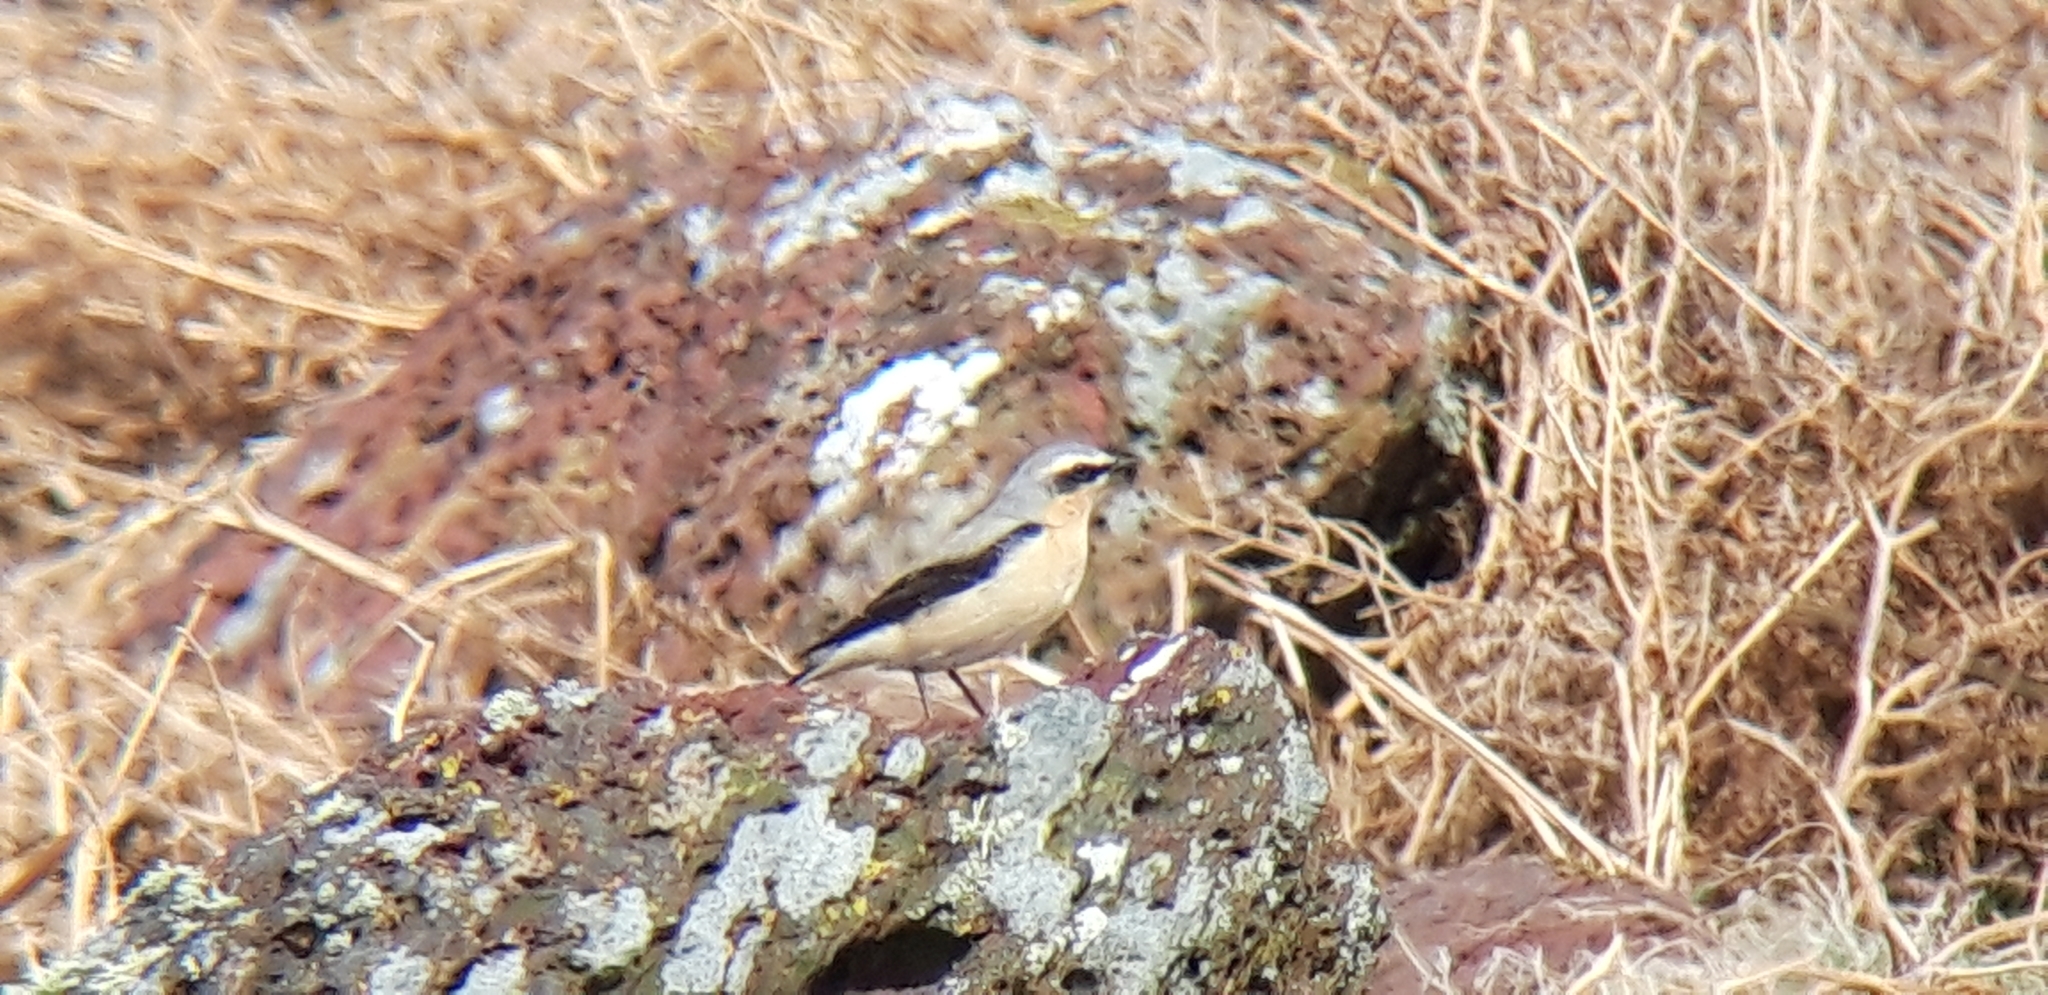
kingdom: Animalia
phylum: Chordata
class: Aves
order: Passeriformes
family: Muscicapidae
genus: Oenanthe
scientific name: Oenanthe oenanthe
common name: Northern wheatear
